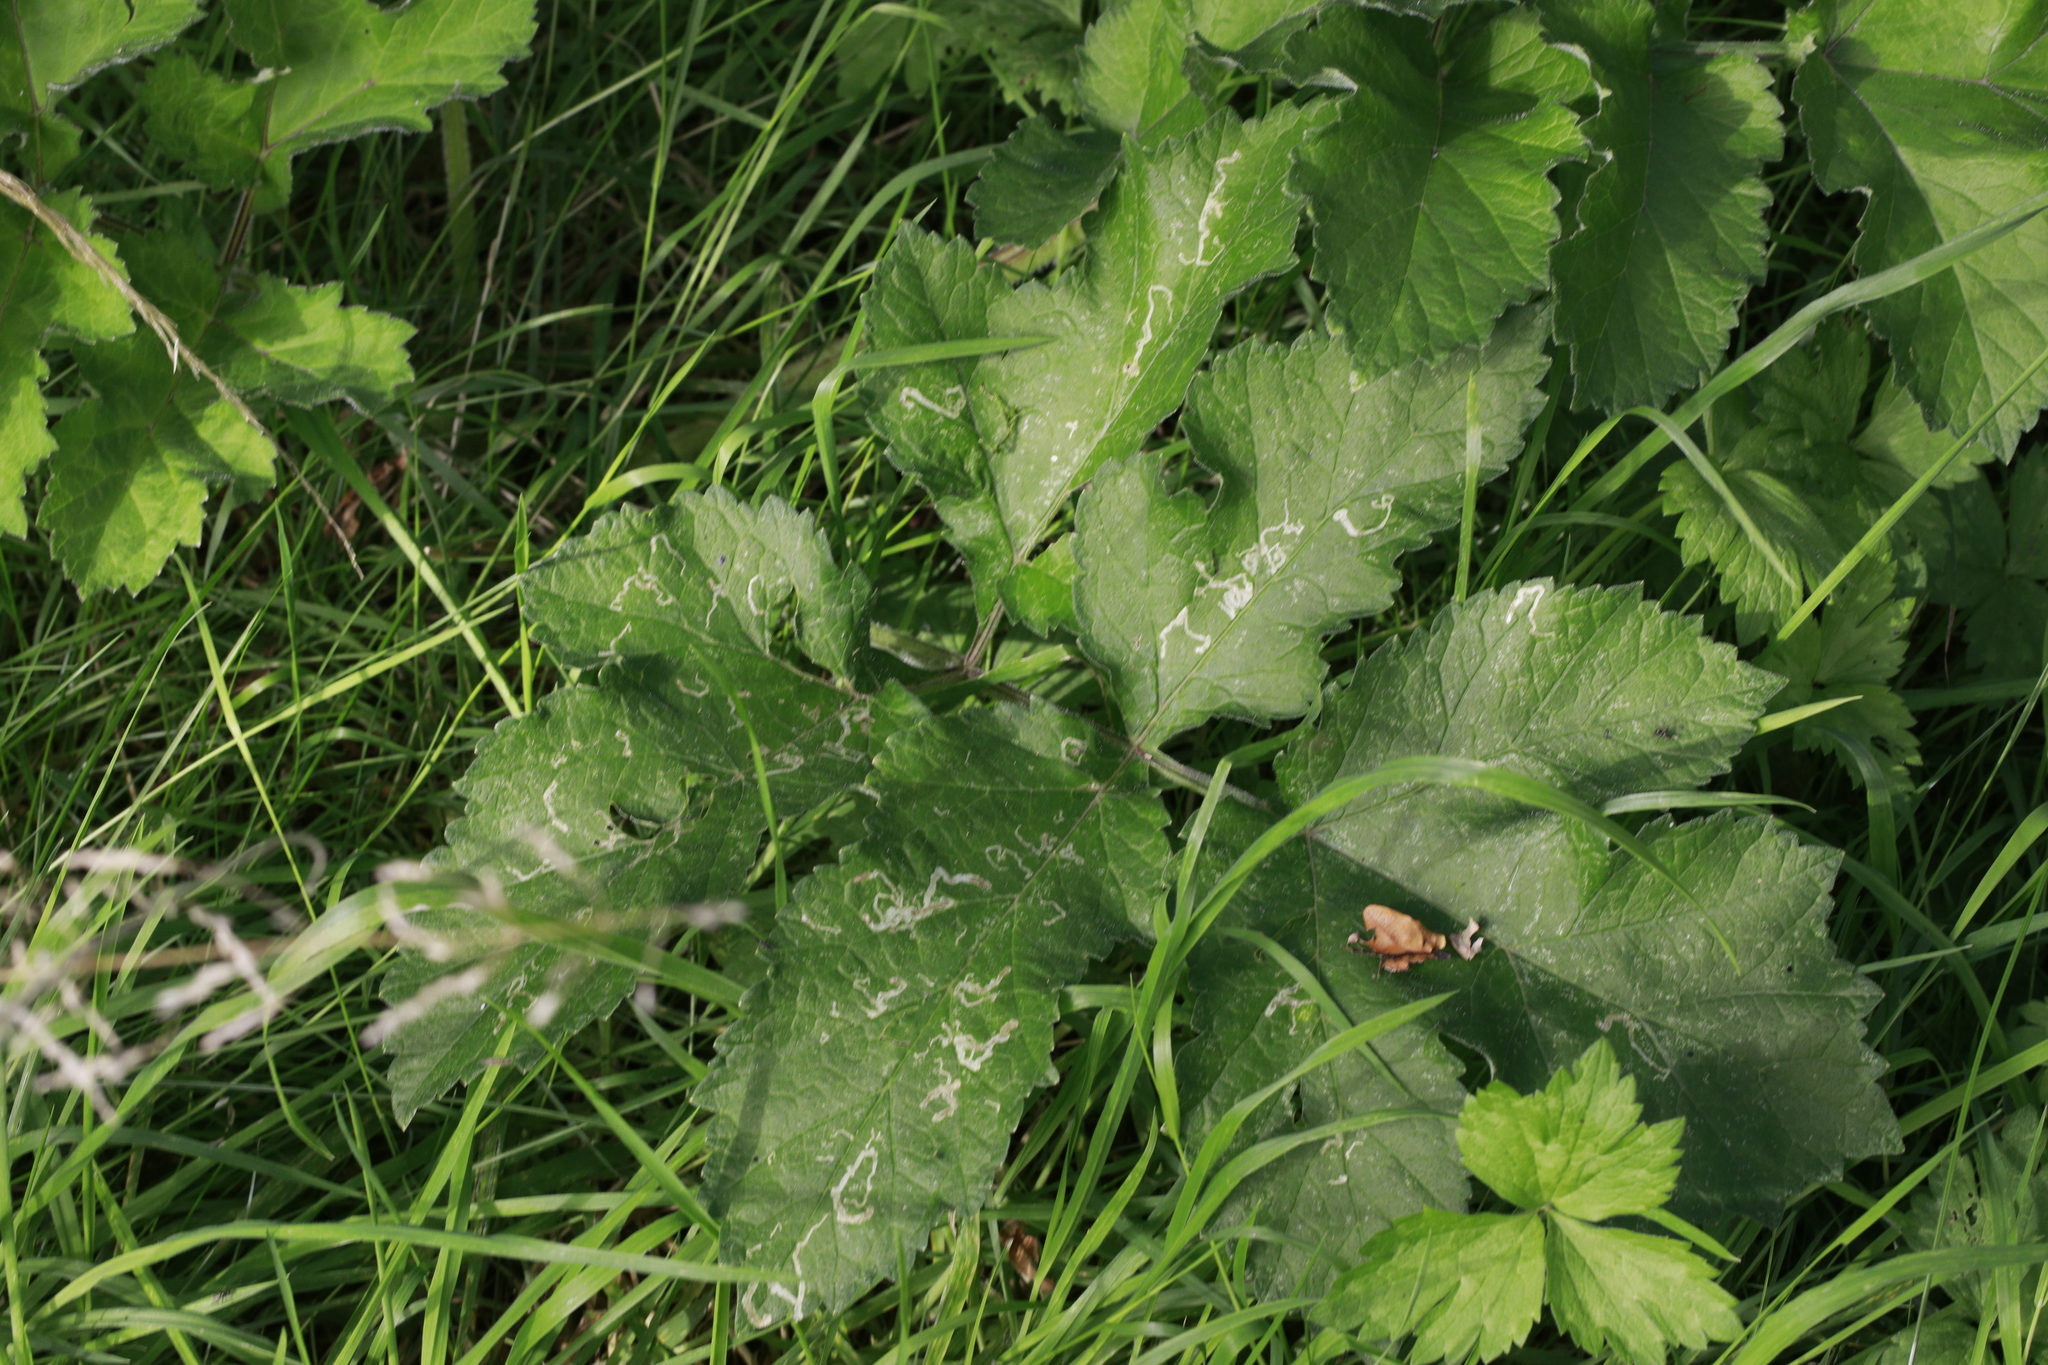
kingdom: Plantae
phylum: Tracheophyta
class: Magnoliopsida
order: Apiales
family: Apiaceae
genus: Heracleum
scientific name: Heracleum sphondylium
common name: Hogweed
